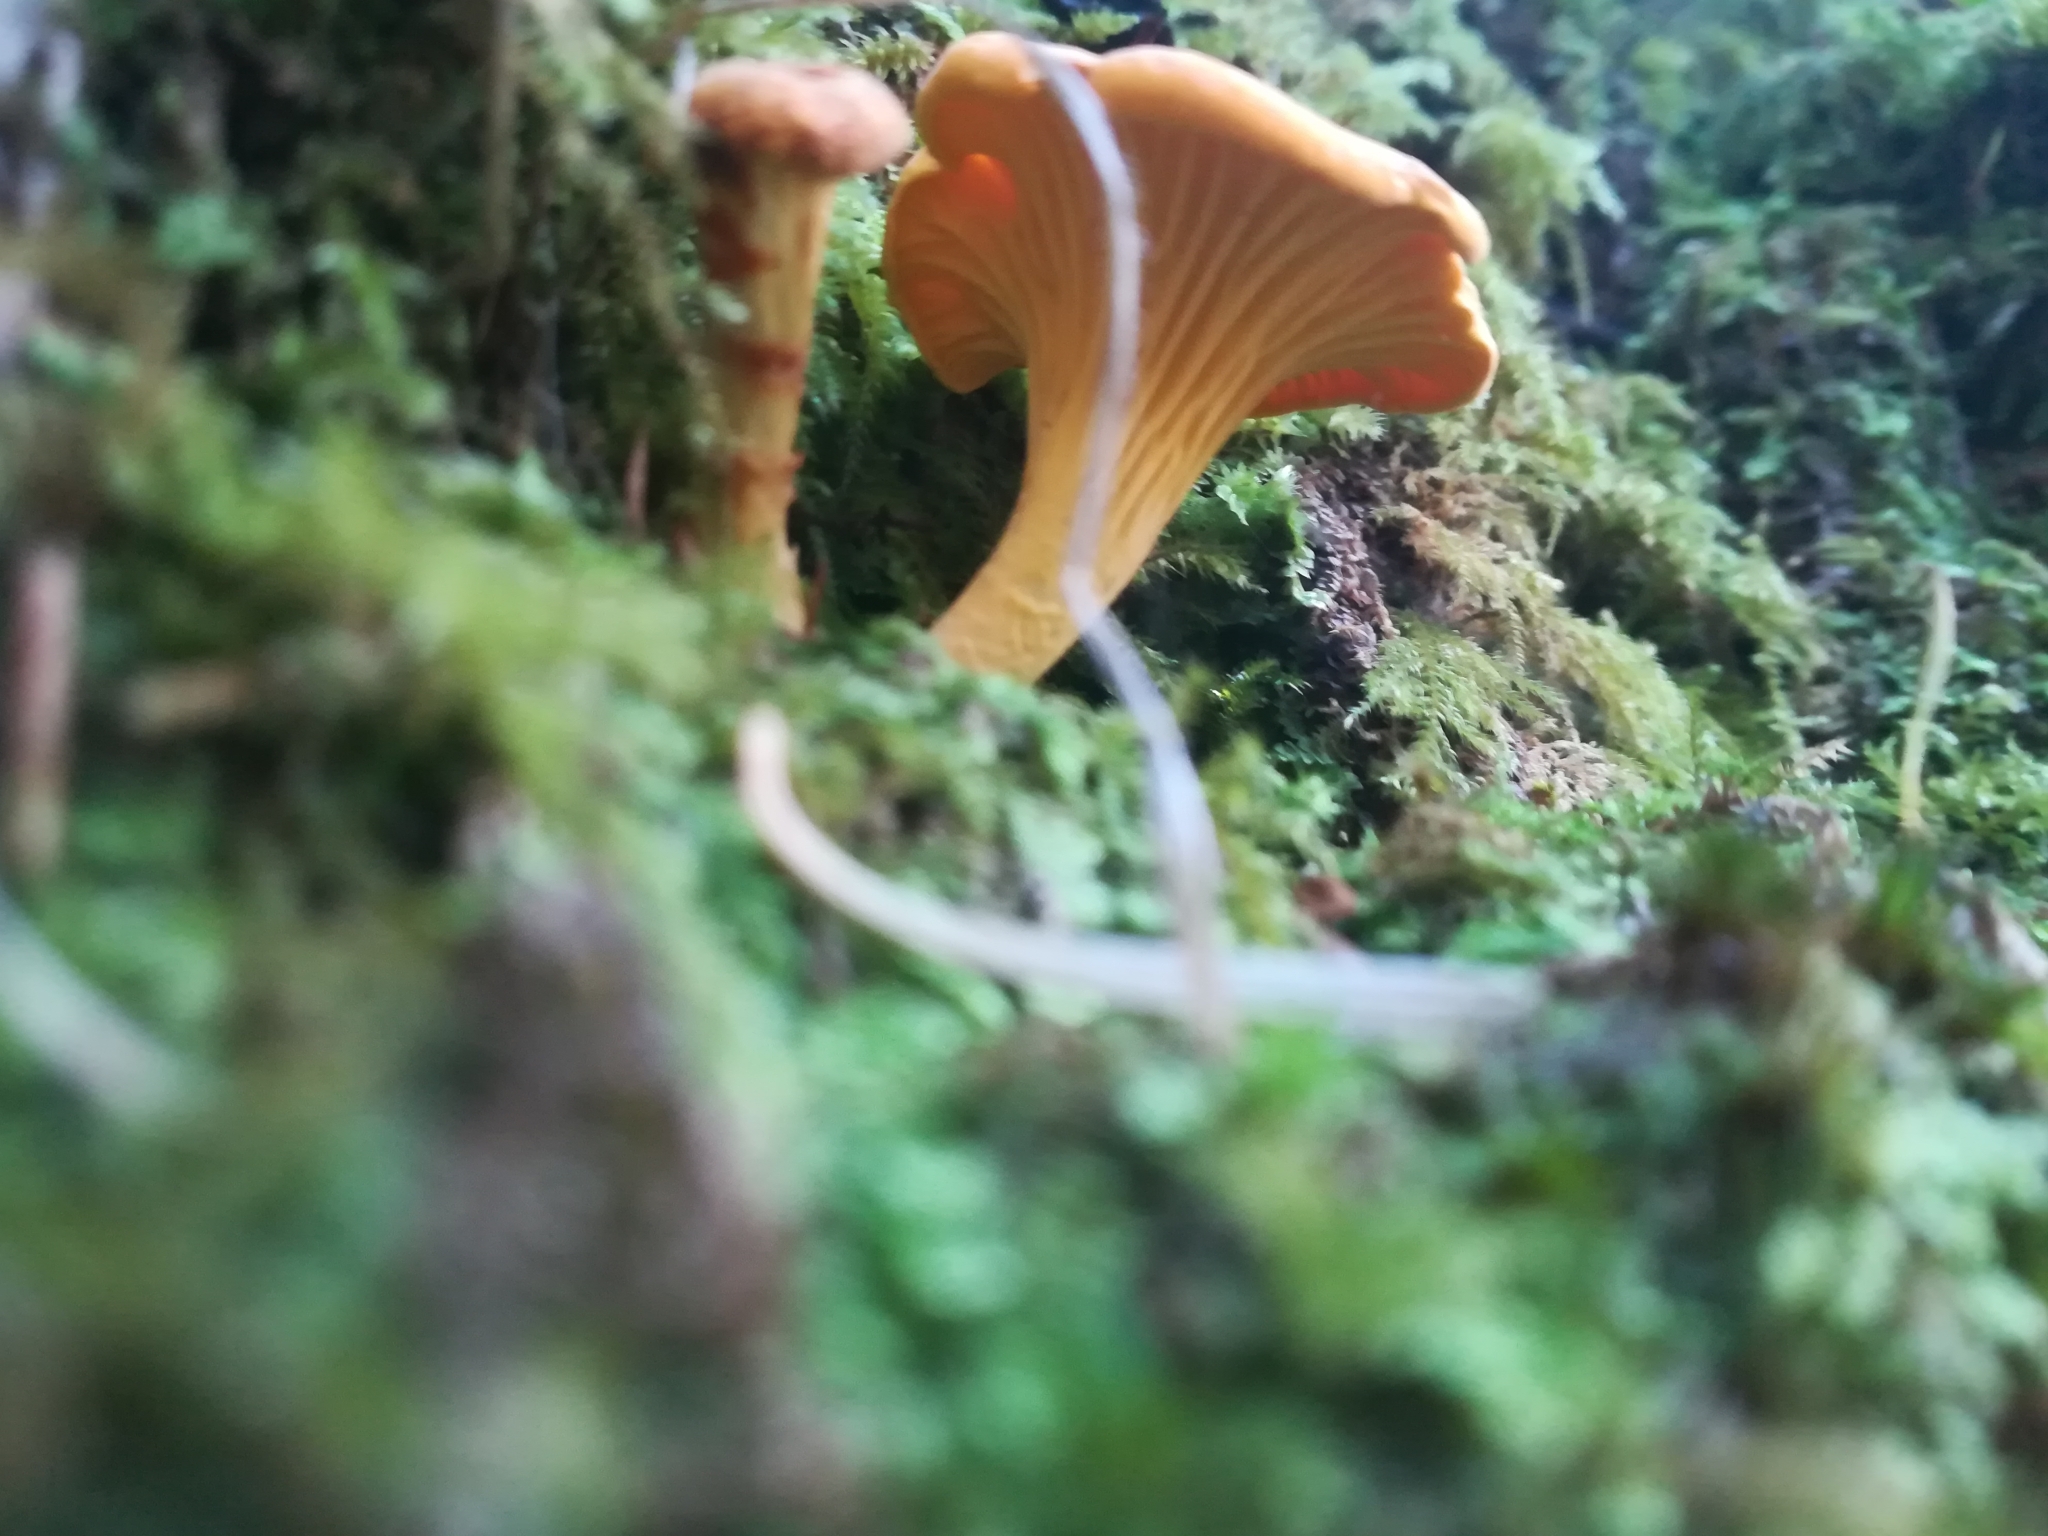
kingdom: Fungi
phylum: Basidiomycota
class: Agaricomycetes
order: Cantharellales
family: Hydnaceae
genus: Cantharellus
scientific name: Cantharellus cibarius
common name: Chanterelle
